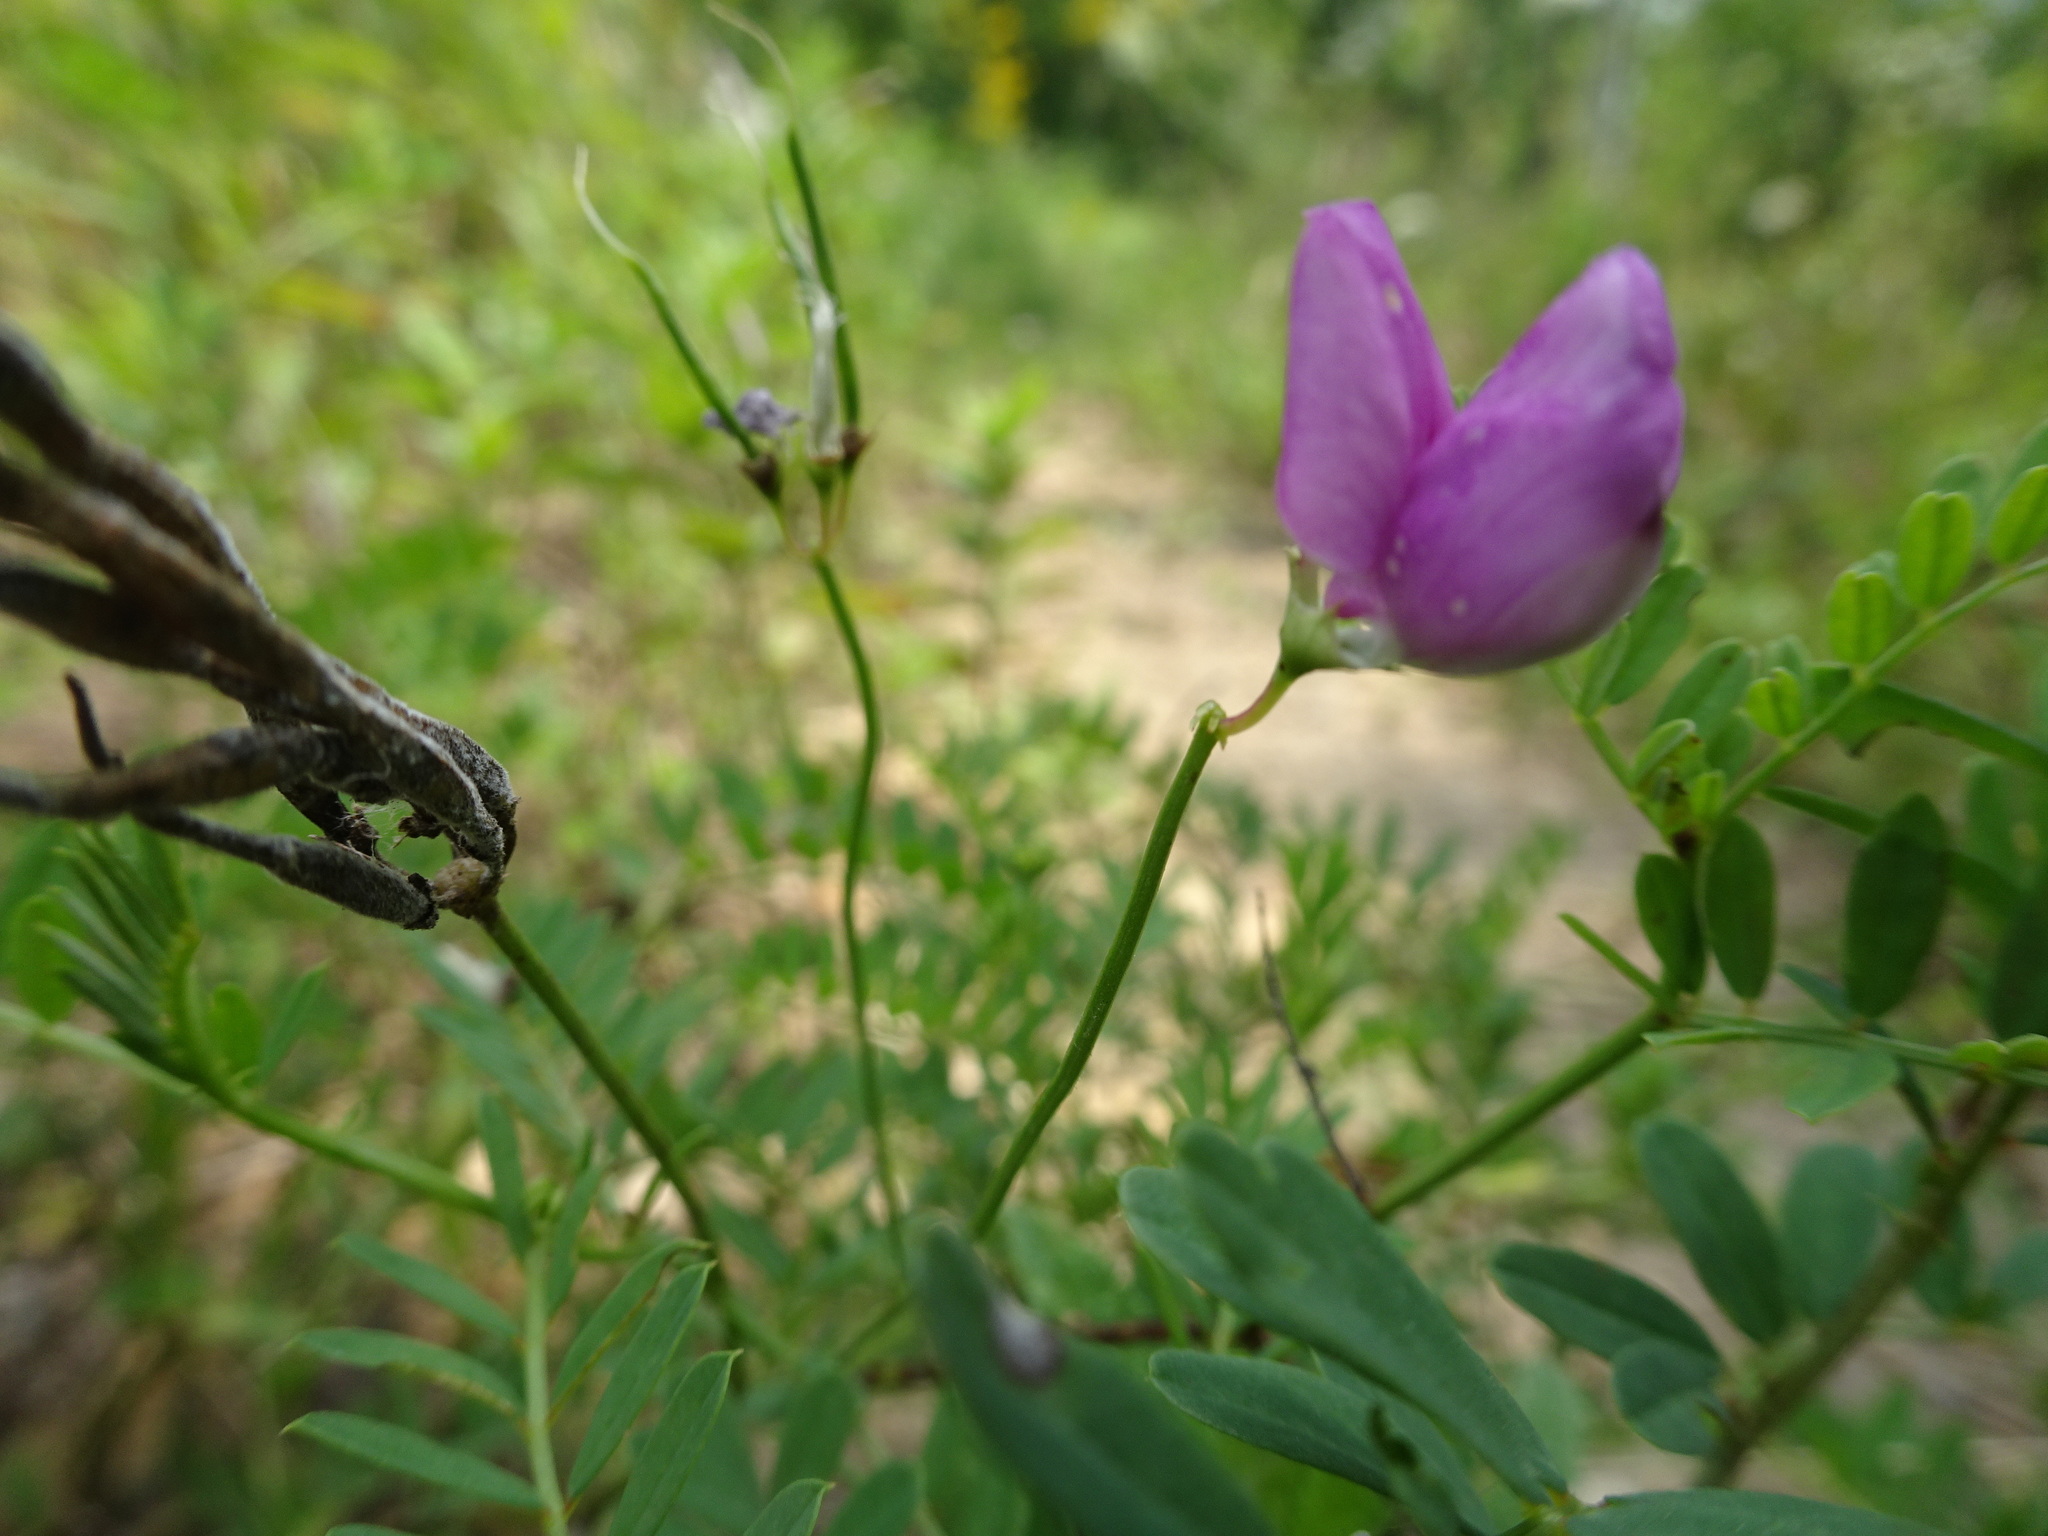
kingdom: Plantae
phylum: Tracheophyta
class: Magnoliopsida
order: Fabales
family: Fabaceae
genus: Coronilla
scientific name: Coronilla varia
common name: Crownvetch
